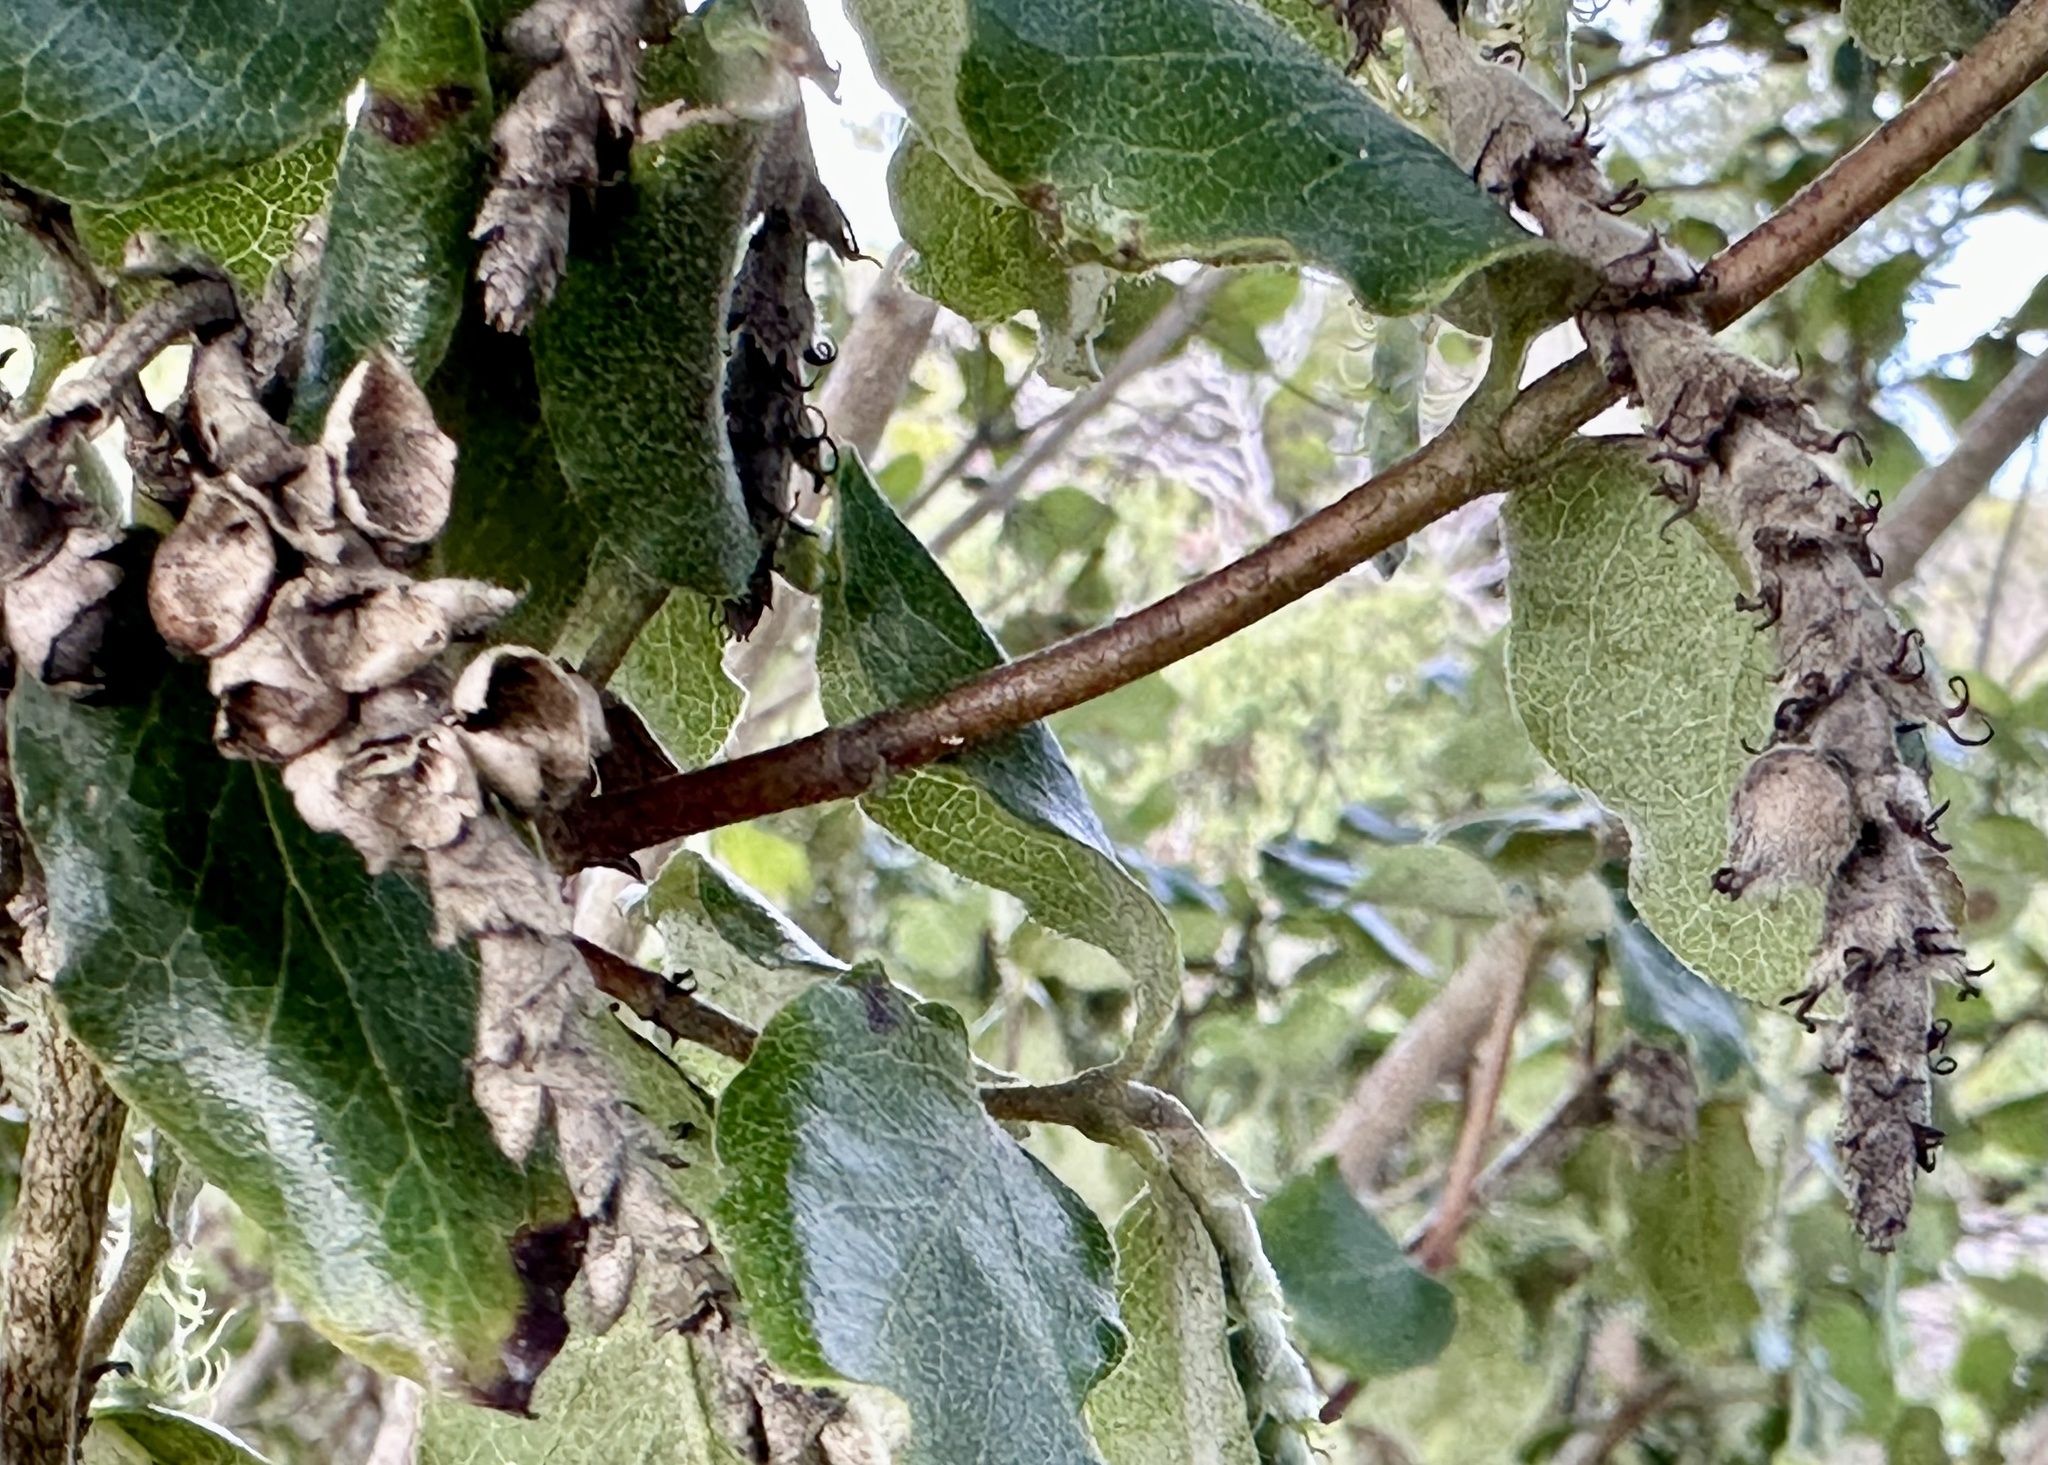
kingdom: Plantae
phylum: Tracheophyta
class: Magnoliopsida
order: Garryales
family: Garryaceae
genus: Garrya
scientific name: Garrya elliptica
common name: Silk-tassel
